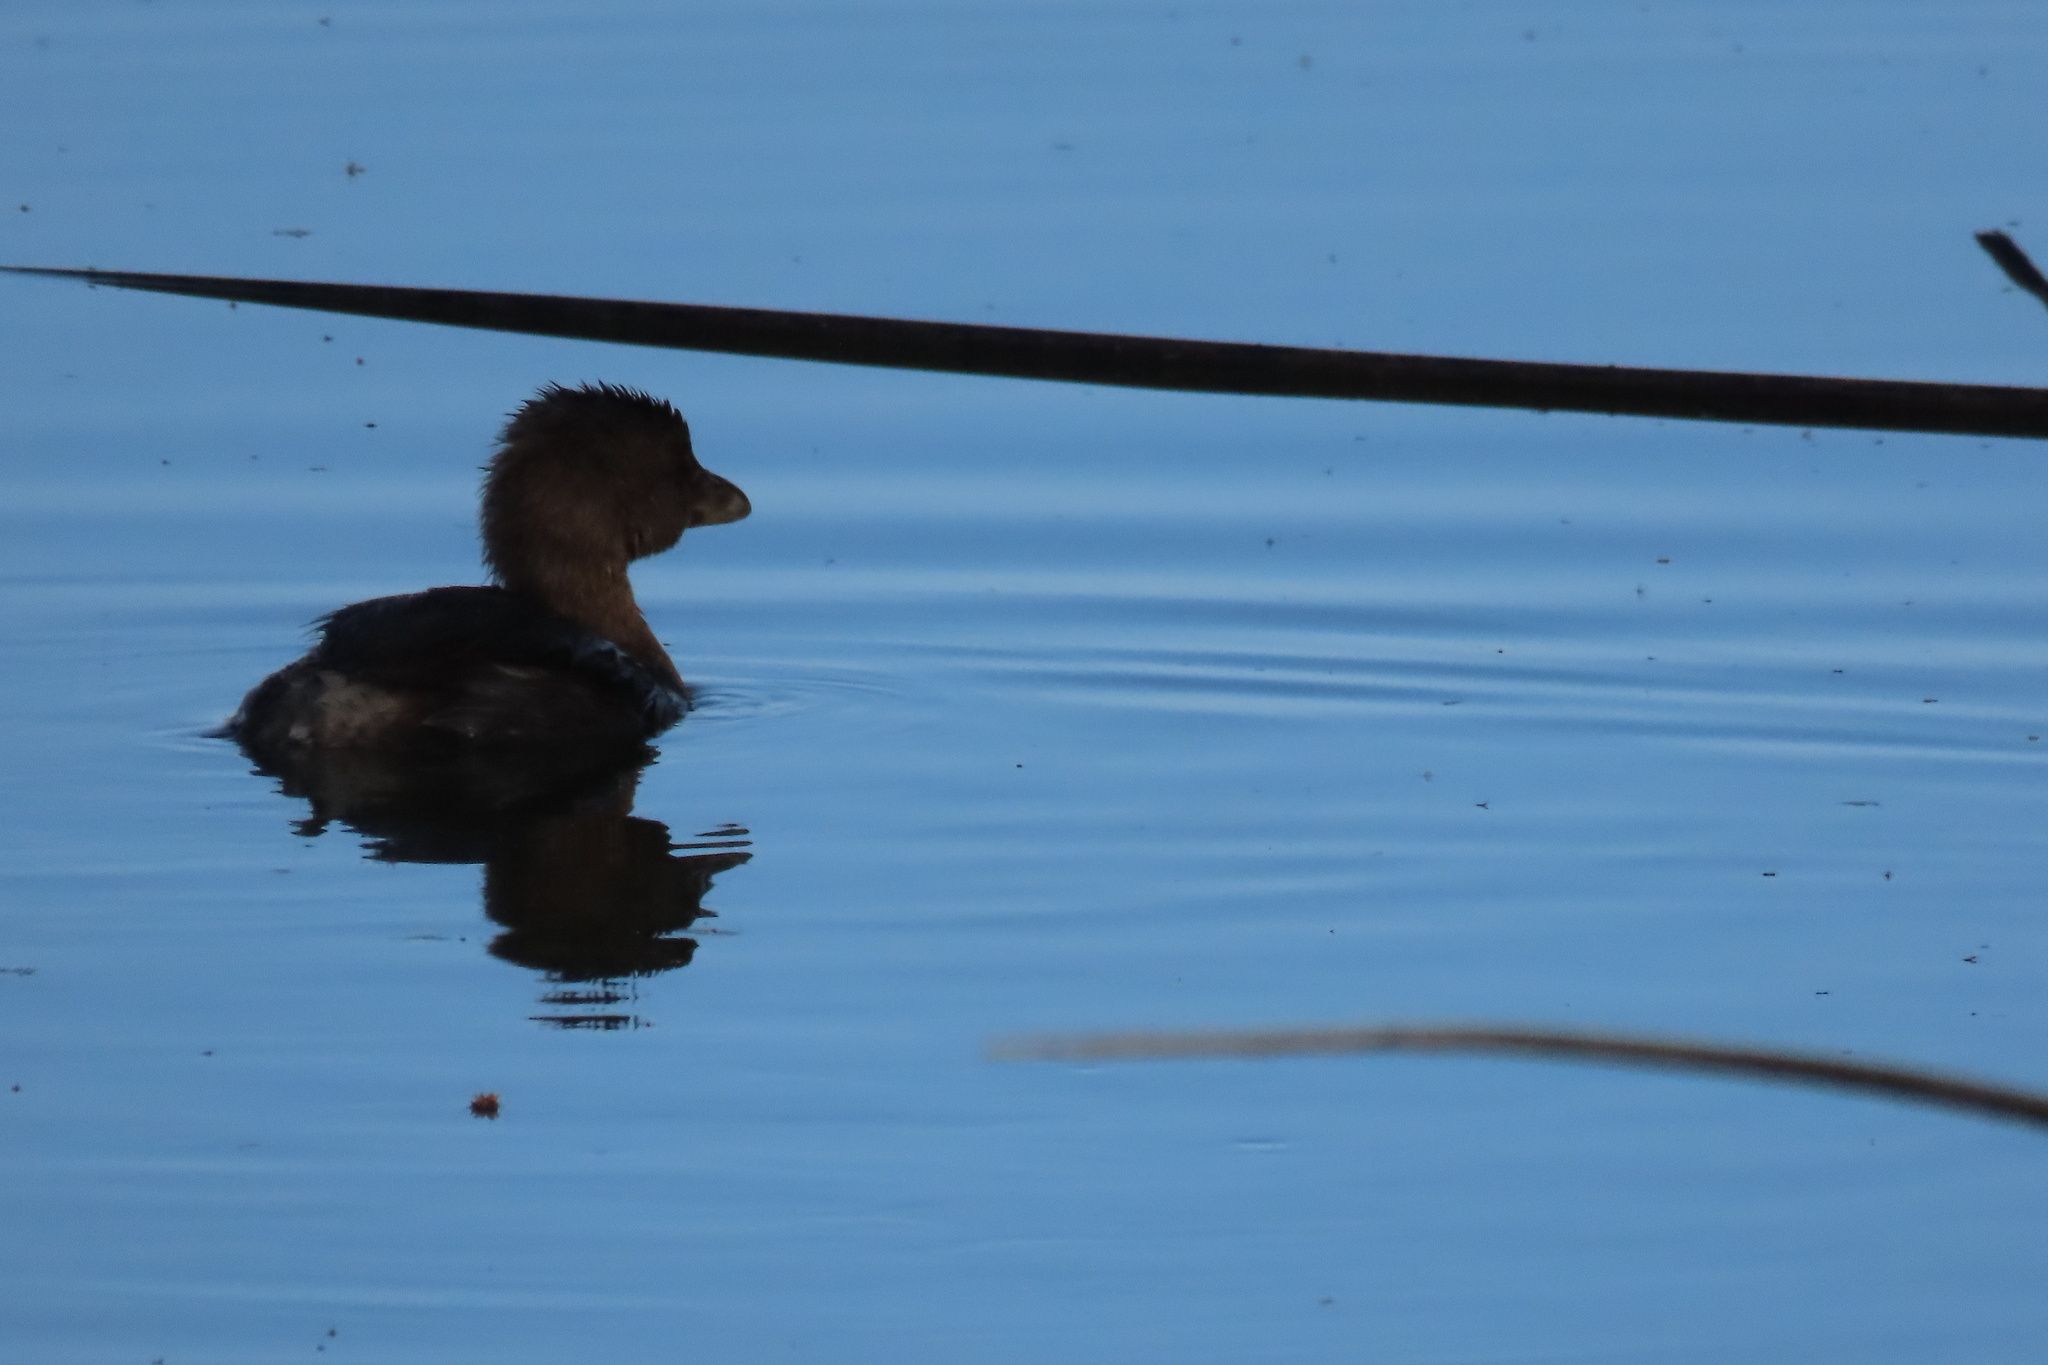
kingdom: Animalia
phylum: Chordata
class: Aves
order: Podicipediformes
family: Podicipedidae
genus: Podilymbus
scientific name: Podilymbus podiceps
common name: Pied-billed grebe
